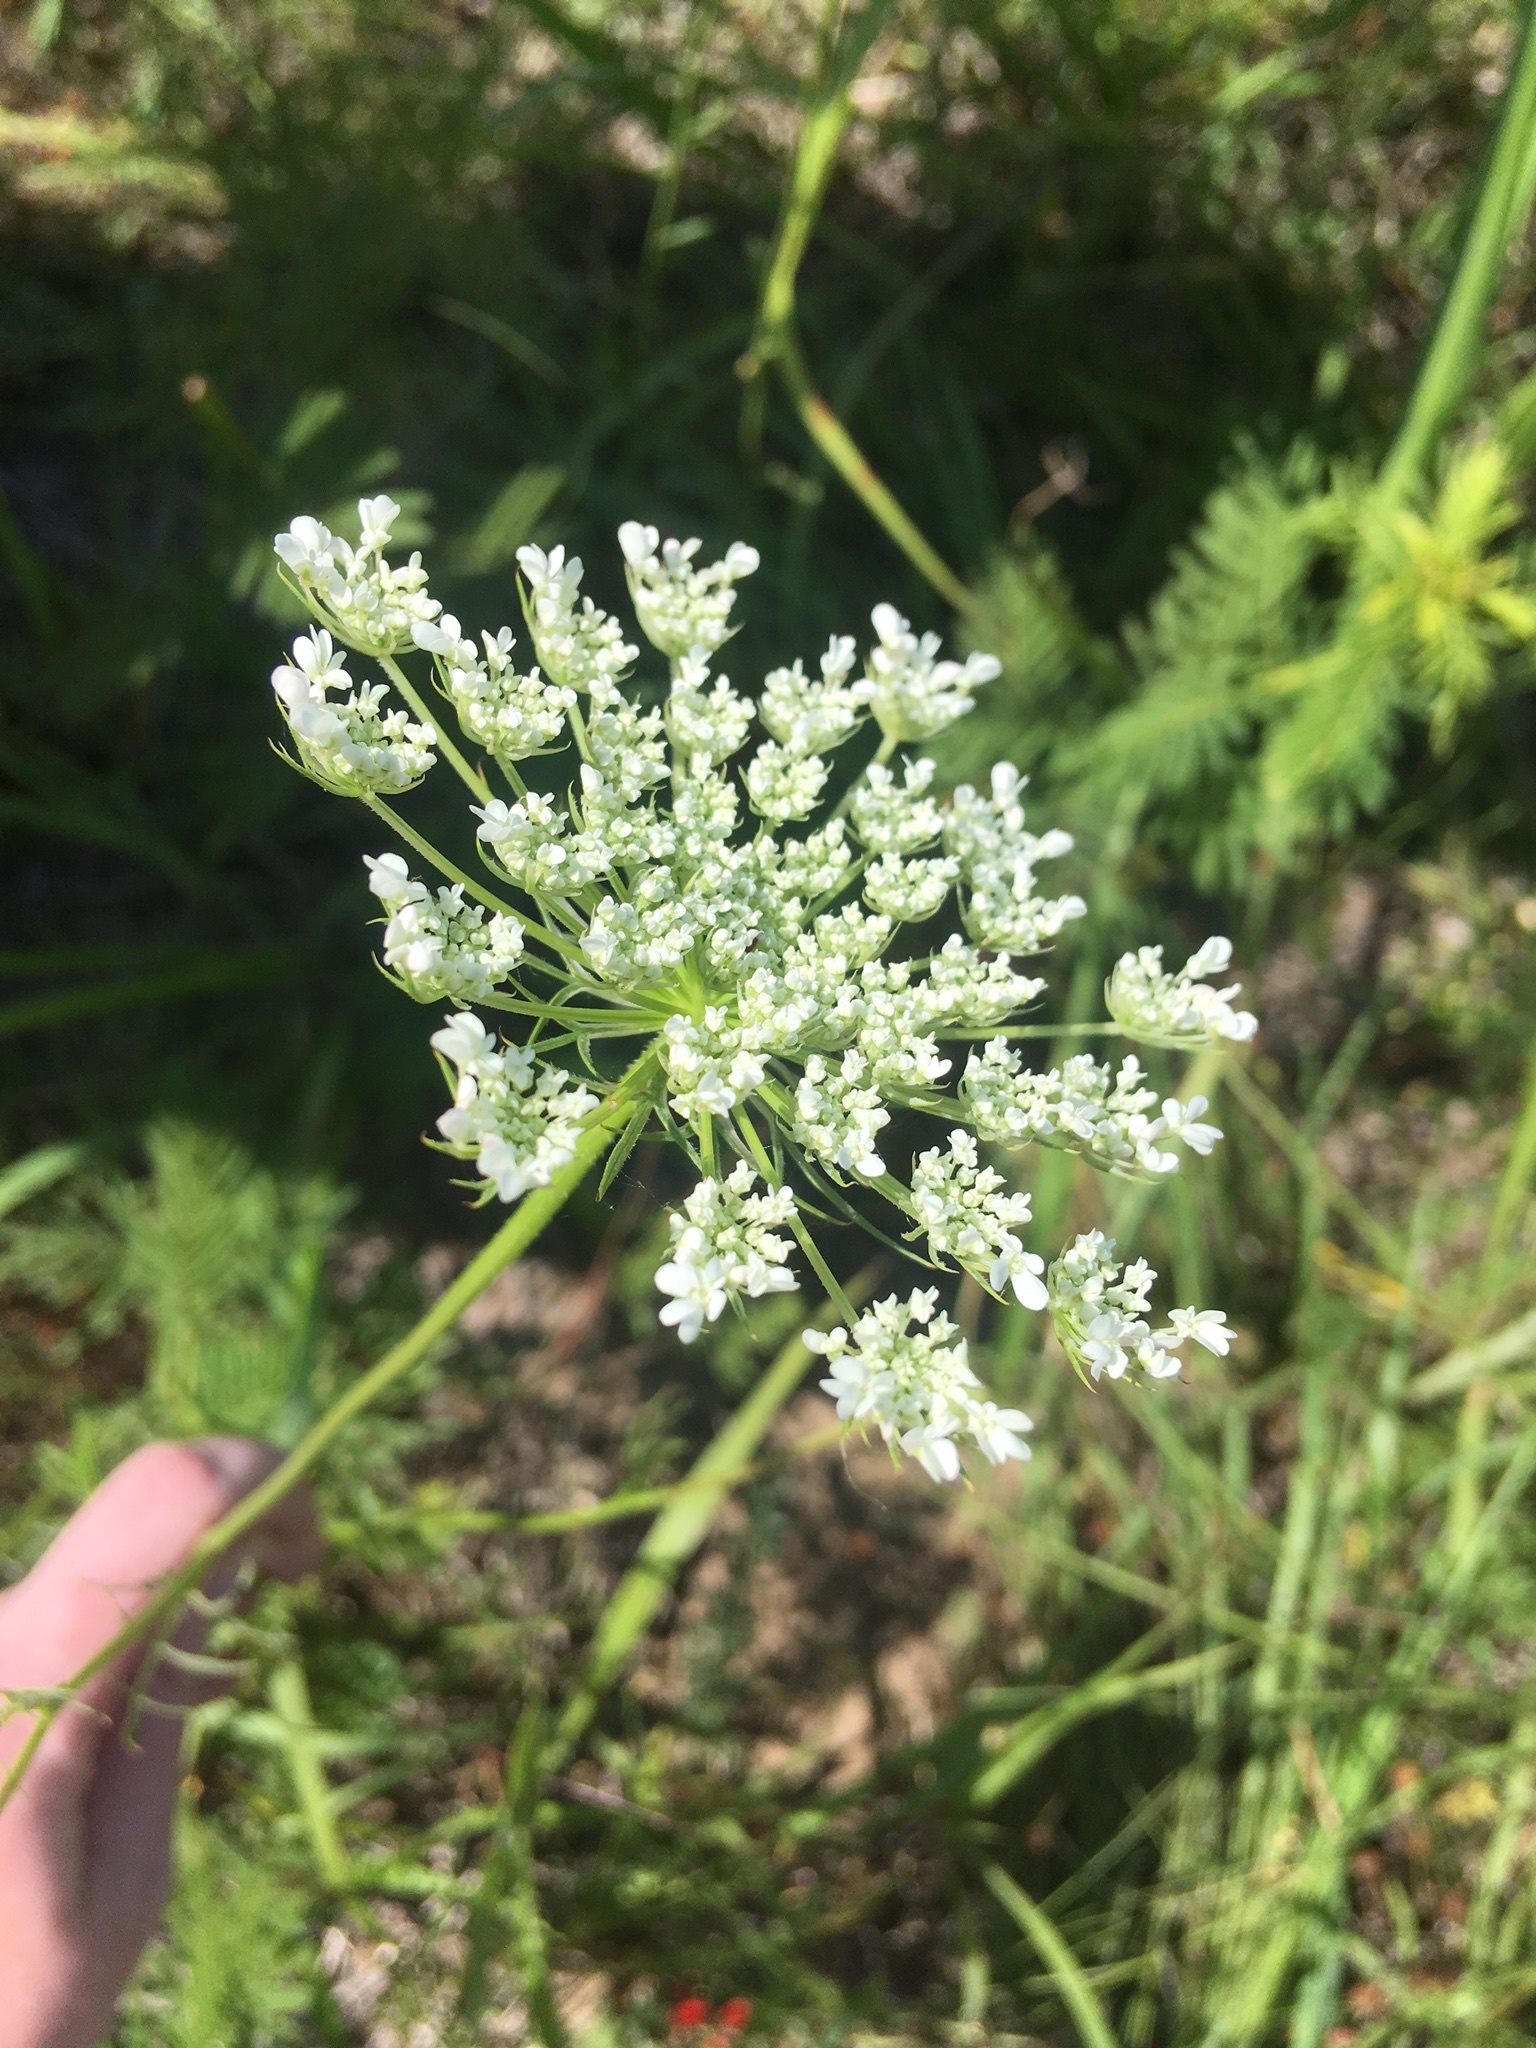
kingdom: Plantae
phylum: Tracheophyta
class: Magnoliopsida
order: Apiales
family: Apiaceae
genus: Daucus
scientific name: Daucus carota
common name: Wild carrot
